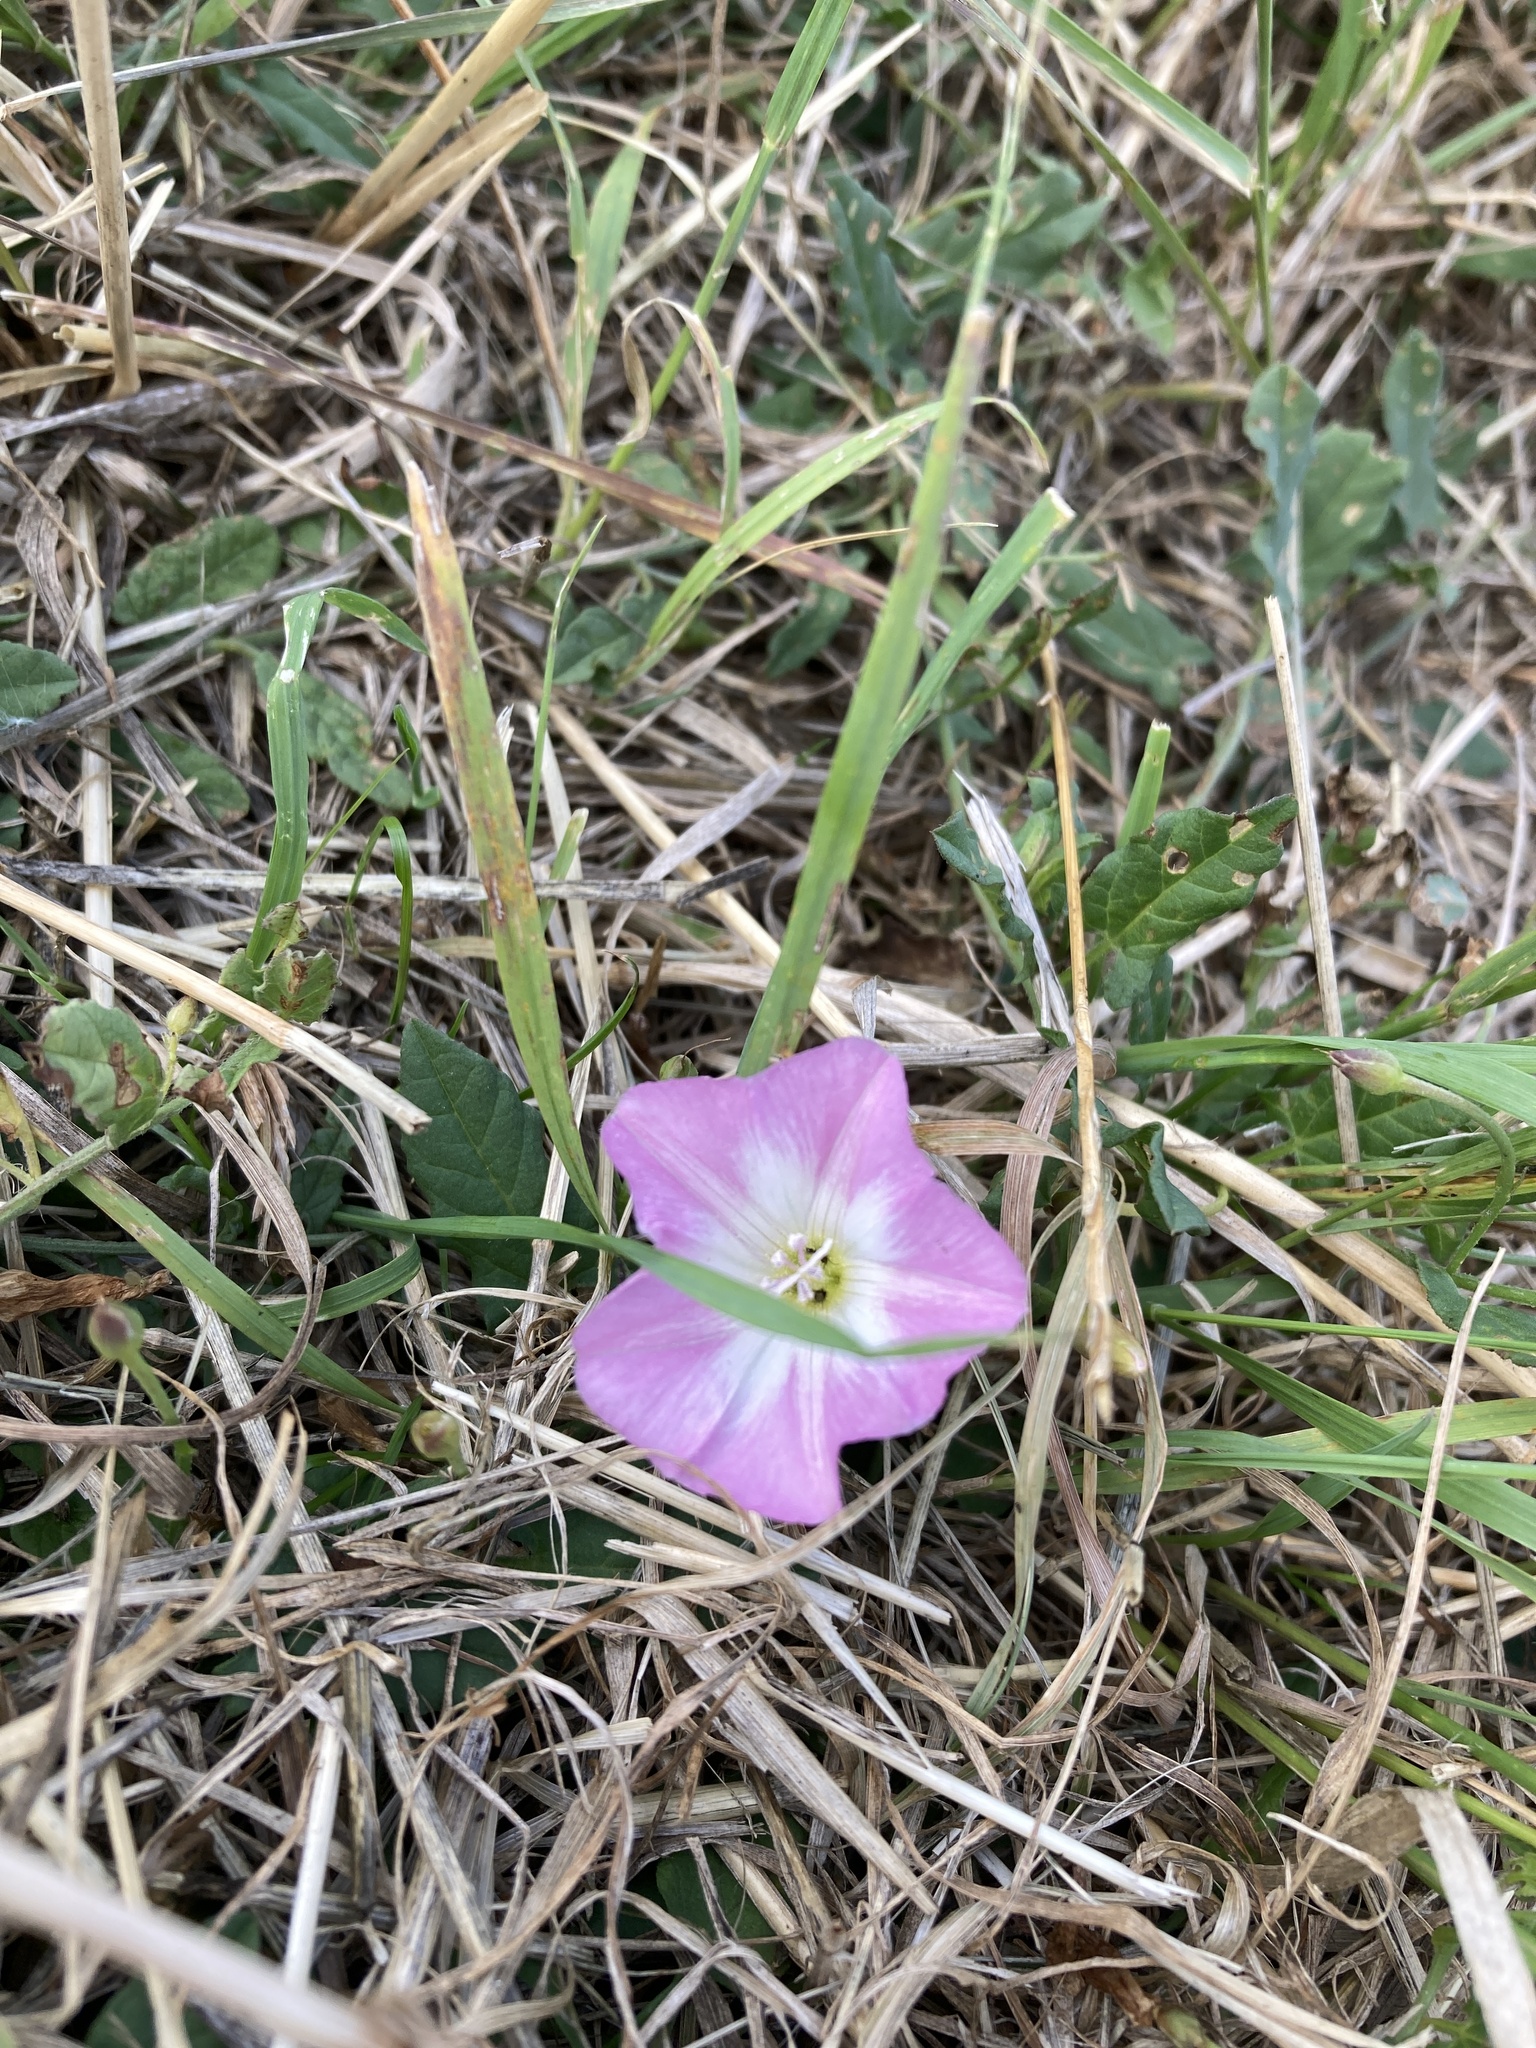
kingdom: Plantae
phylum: Tracheophyta
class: Magnoliopsida
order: Solanales
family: Convolvulaceae
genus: Convolvulus
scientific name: Convolvulus arvensis
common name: Field bindweed
